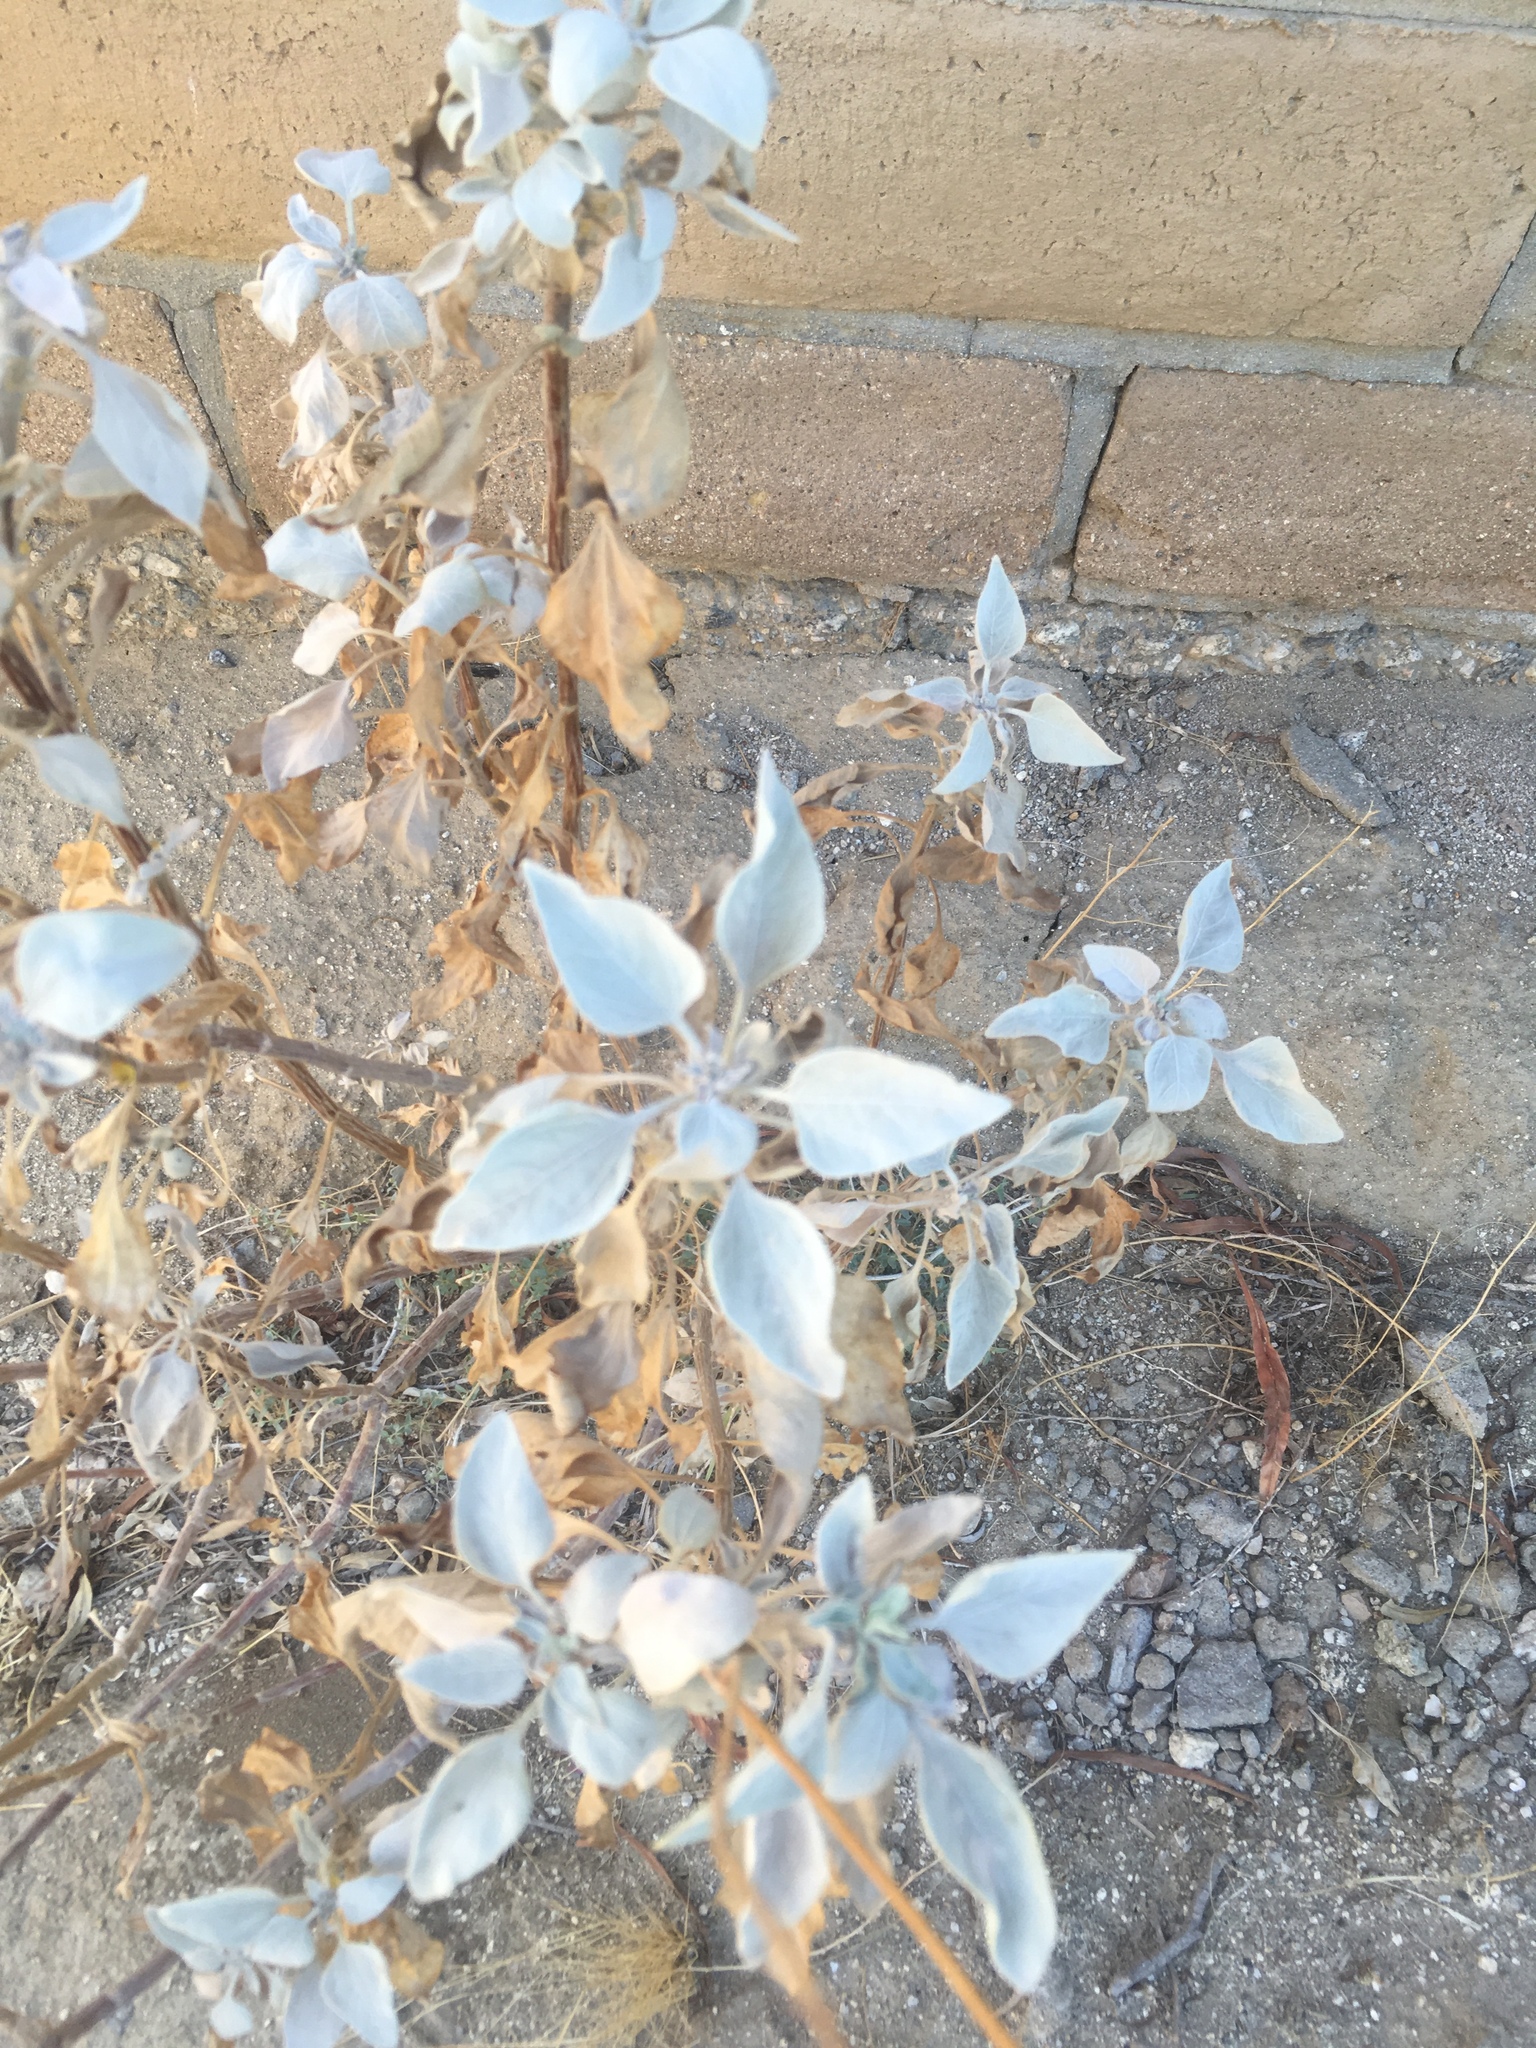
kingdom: Plantae
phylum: Tracheophyta
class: Magnoliopsida
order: Asterales
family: Asteraceae
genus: Encelia
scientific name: Encelia farinosa
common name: Brittlebush
